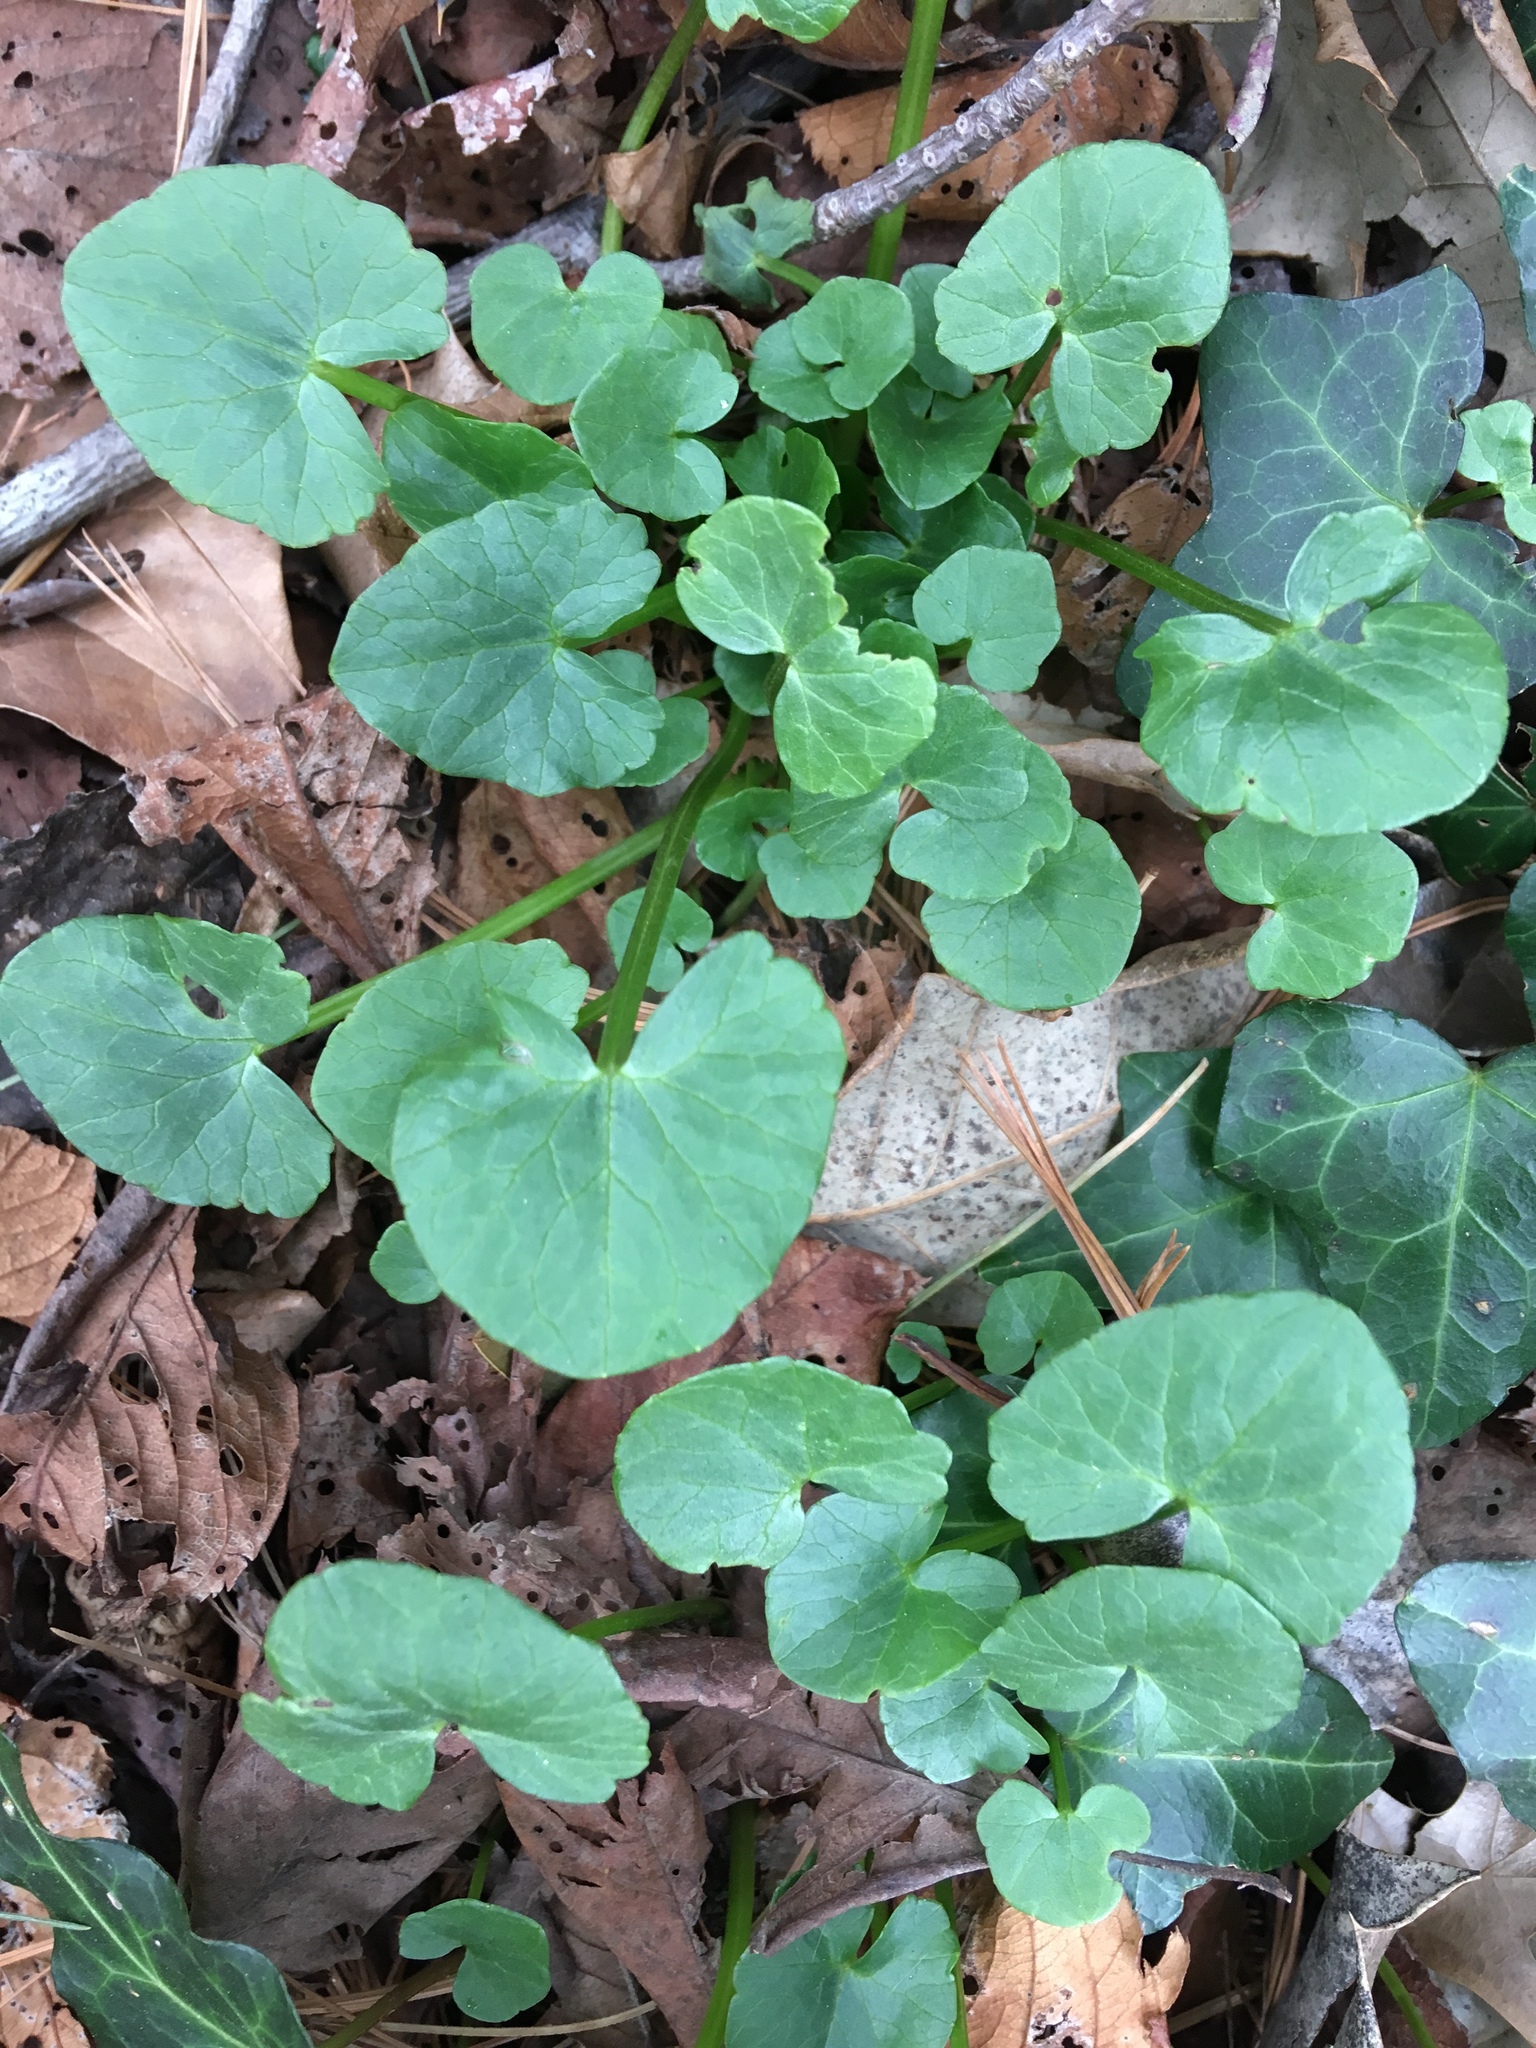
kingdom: Plantae
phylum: Tracheophyta
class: Magnoliopsida
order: Ranunculales
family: Ranunculaceae
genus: Ficaria
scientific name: Ficaria verna
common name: Lesser celandine
